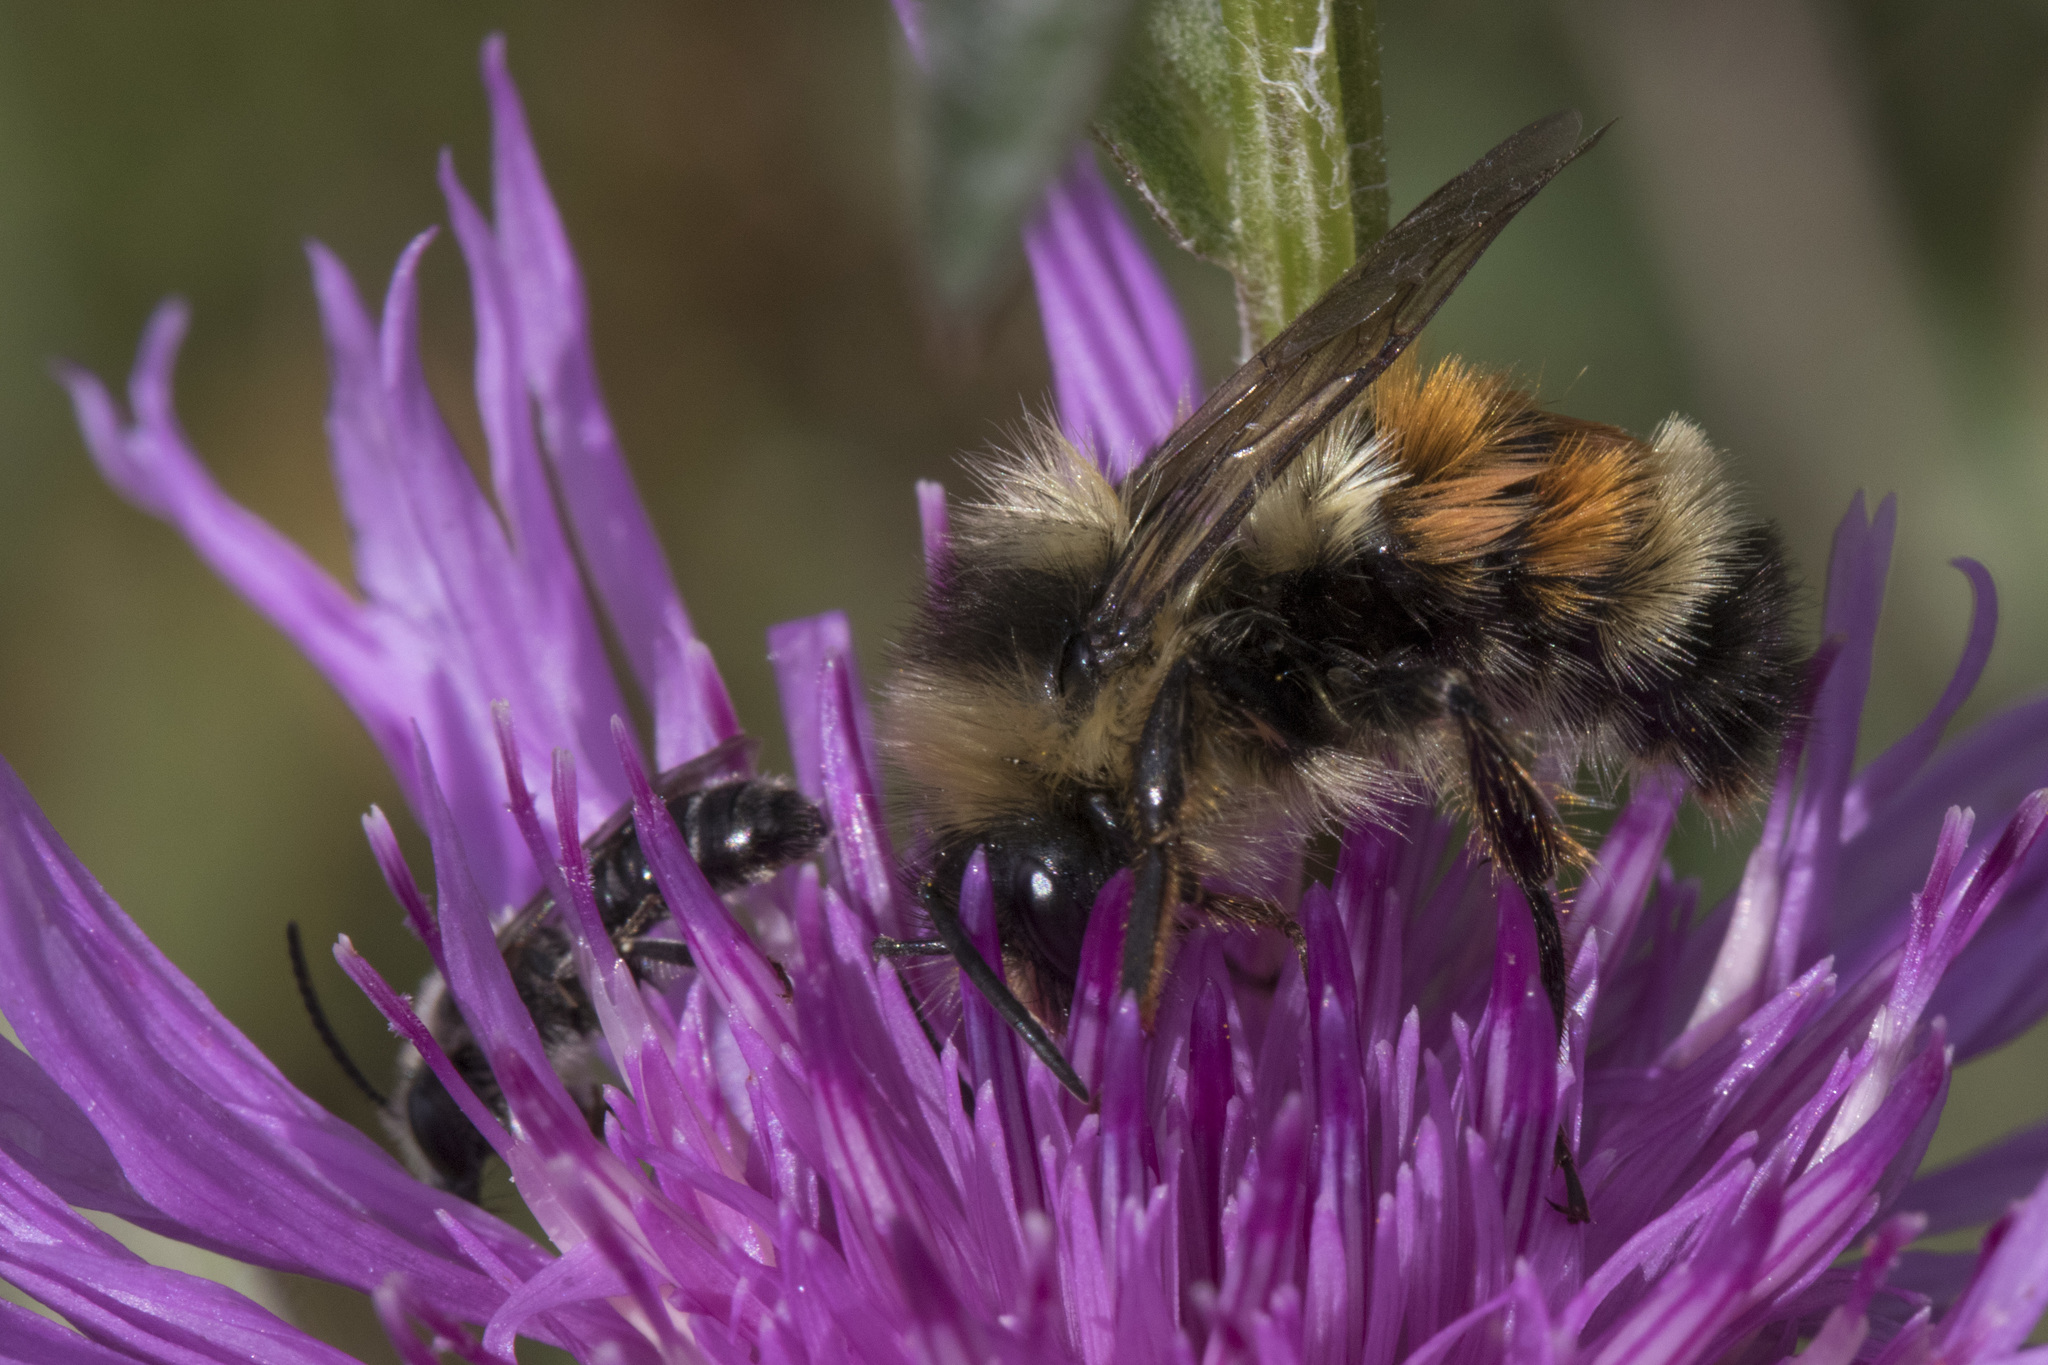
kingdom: Animalia
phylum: Arthropoda
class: Insecta
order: Hymenoptera
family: Apidae
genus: Bombus
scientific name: Bombus ternarius
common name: Tri-colored bumble bee
